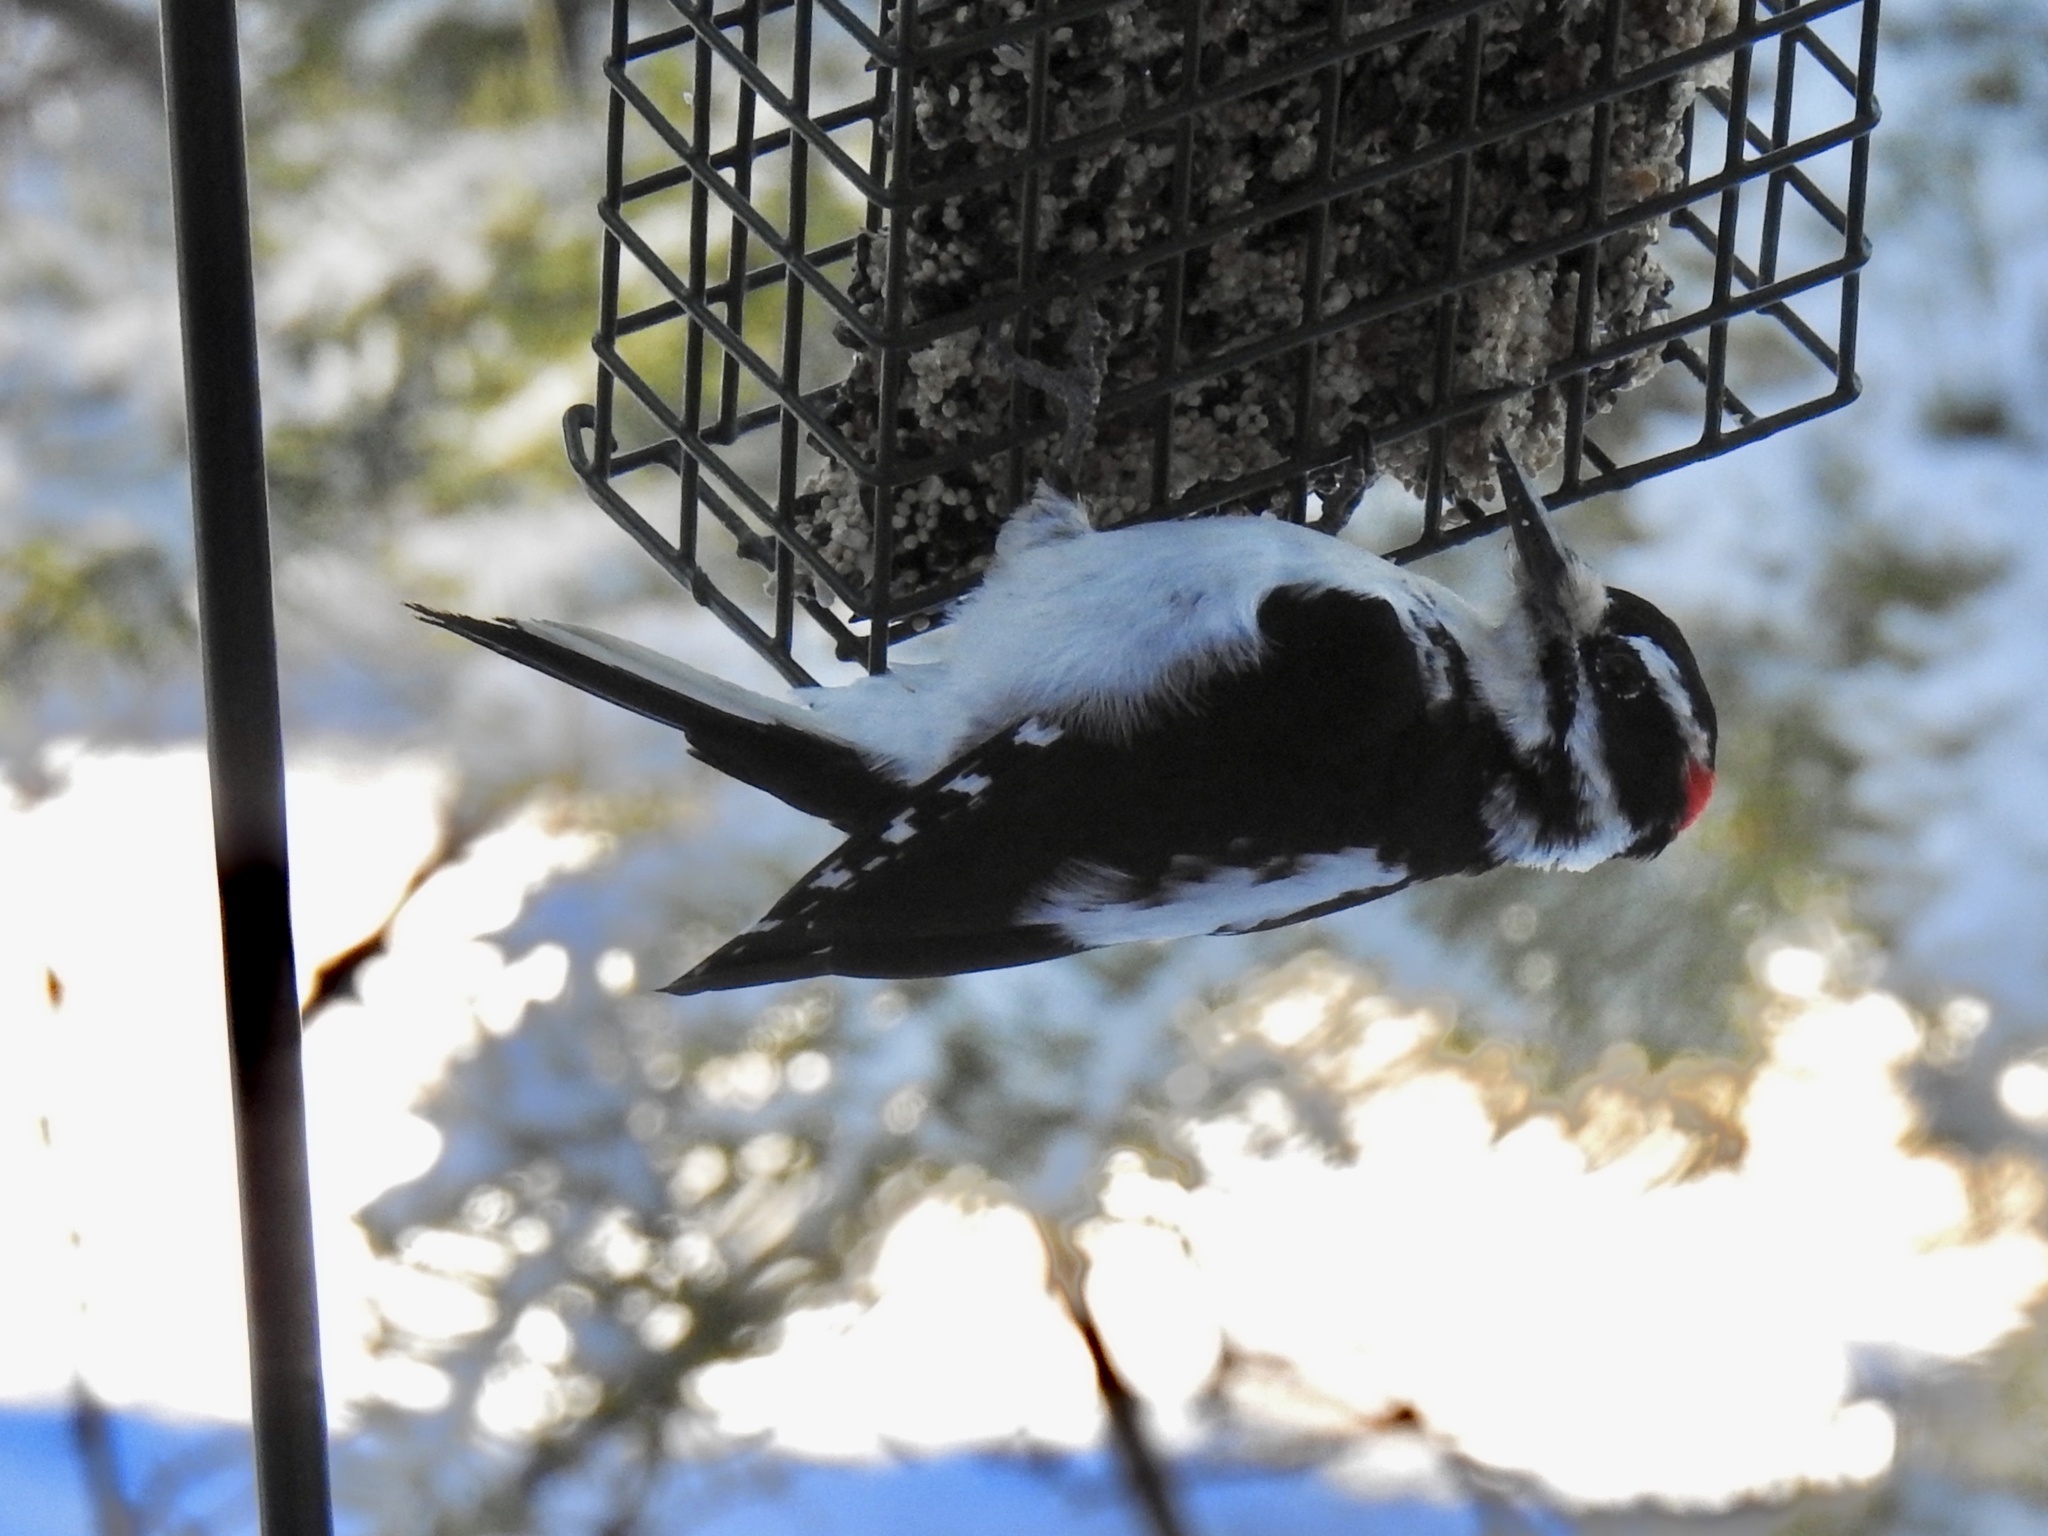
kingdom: Animalia
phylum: Chordata
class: Aves
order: Piciformes
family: Picidae
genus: Leuconotopicus
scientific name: Leuconotopicus villosus
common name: Hairy woodpecker
